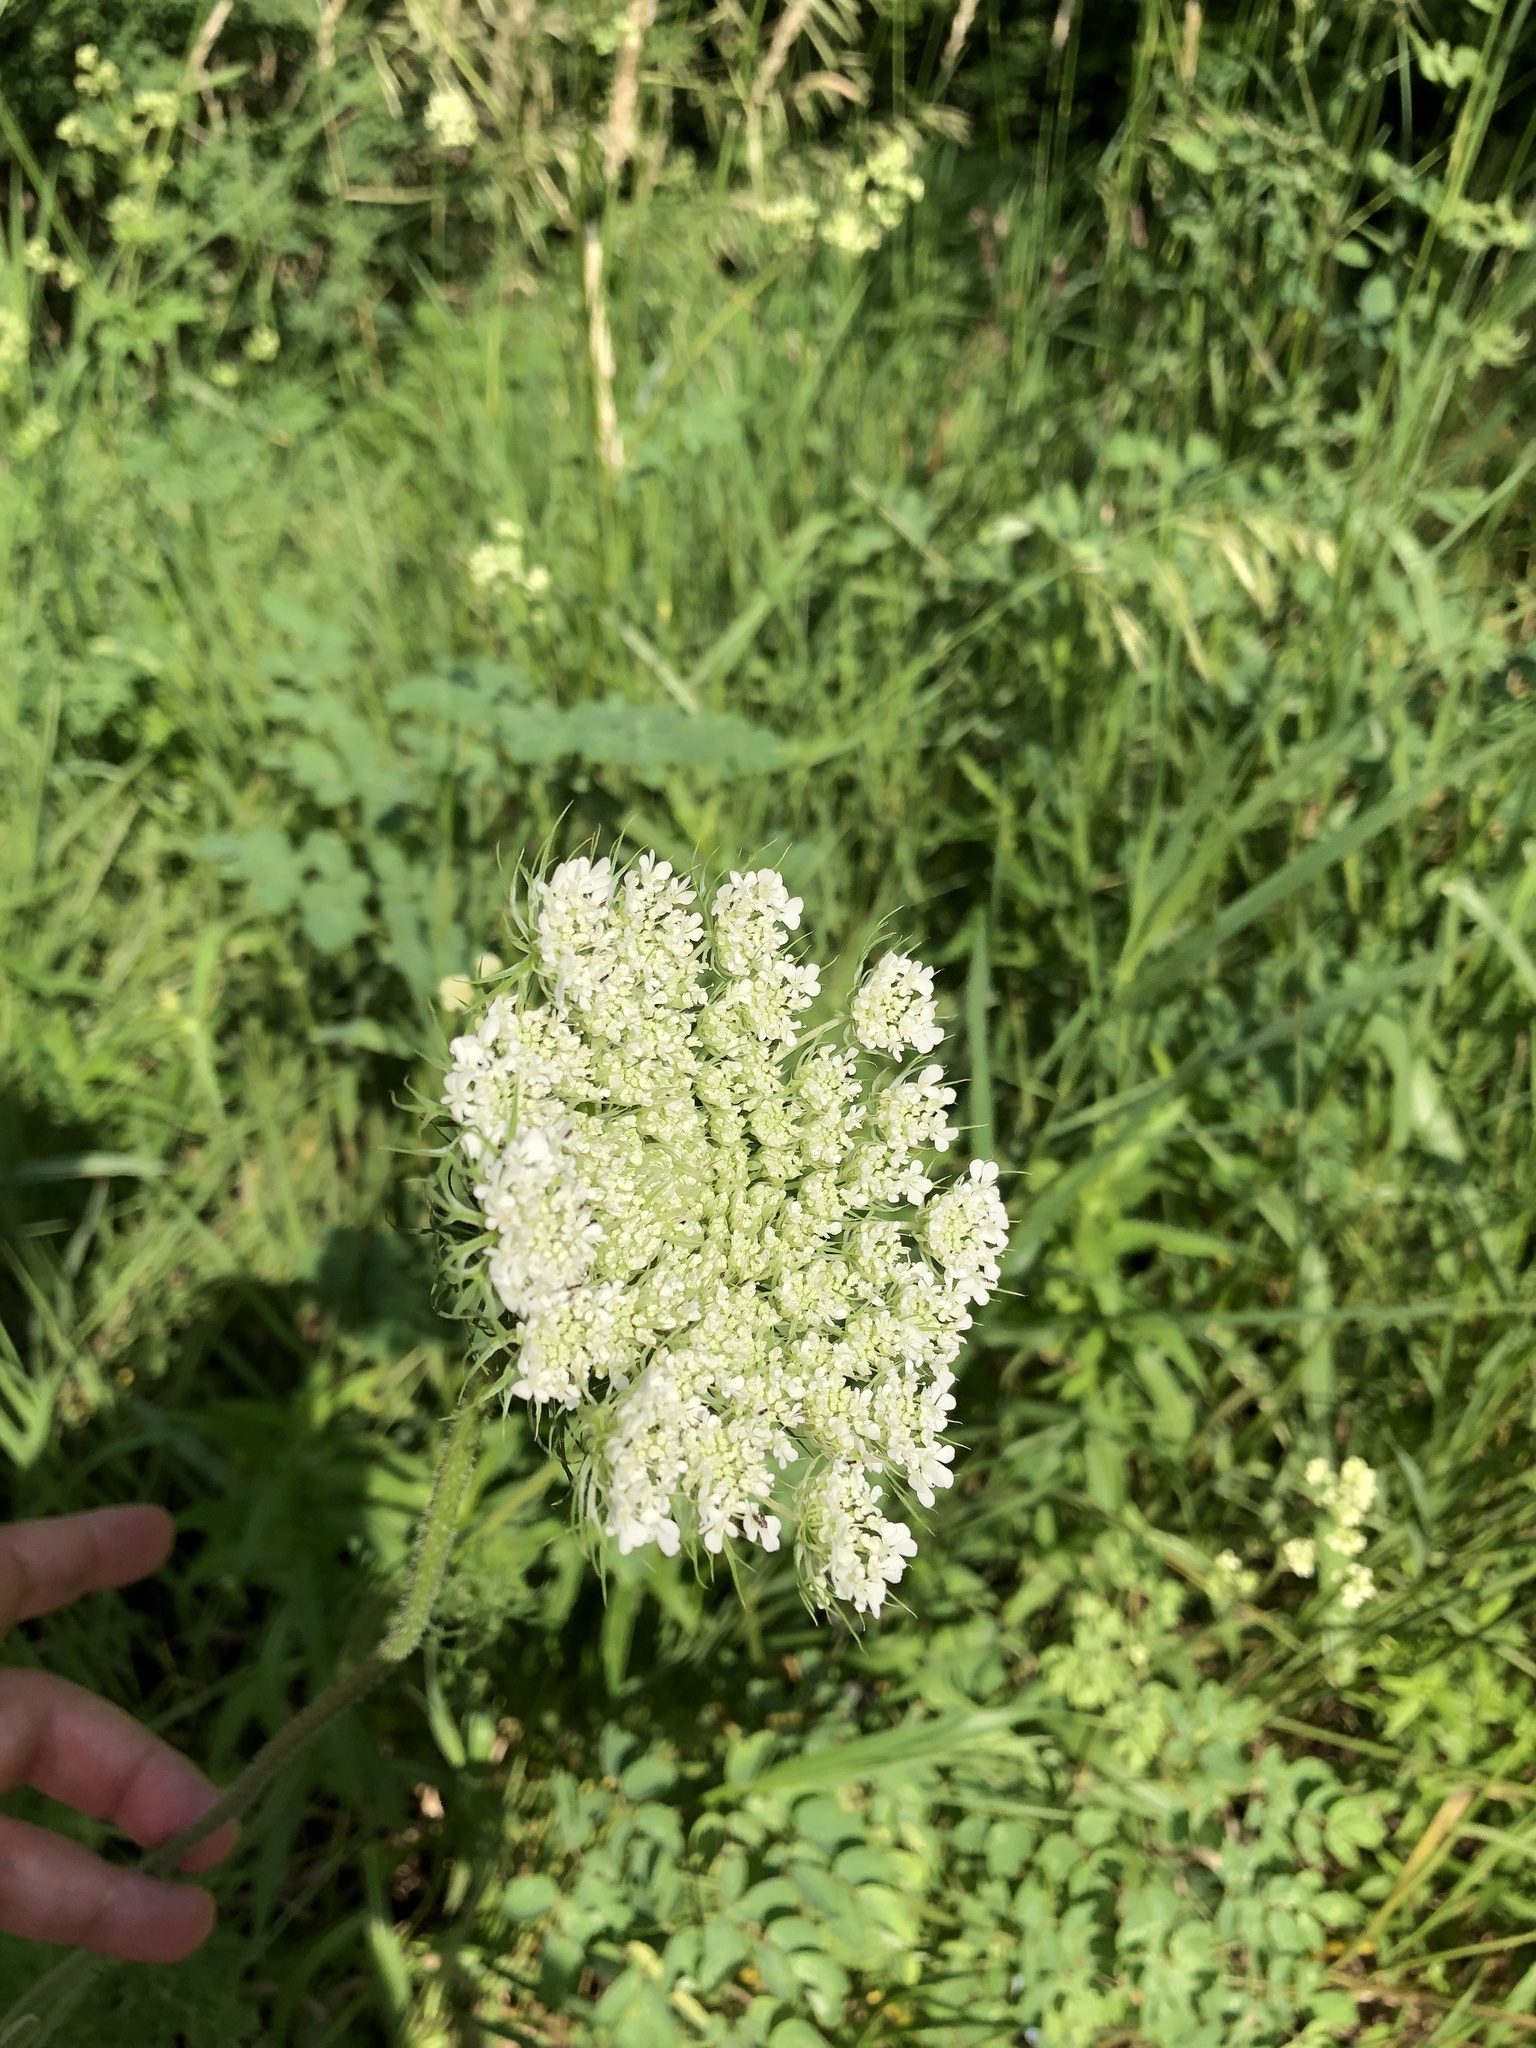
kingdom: Plantae
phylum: Tracheophyta
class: Magnoliopsida
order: Apiales
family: Apiaceae
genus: Daucus
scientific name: Daucus carota
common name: Wild carrot
